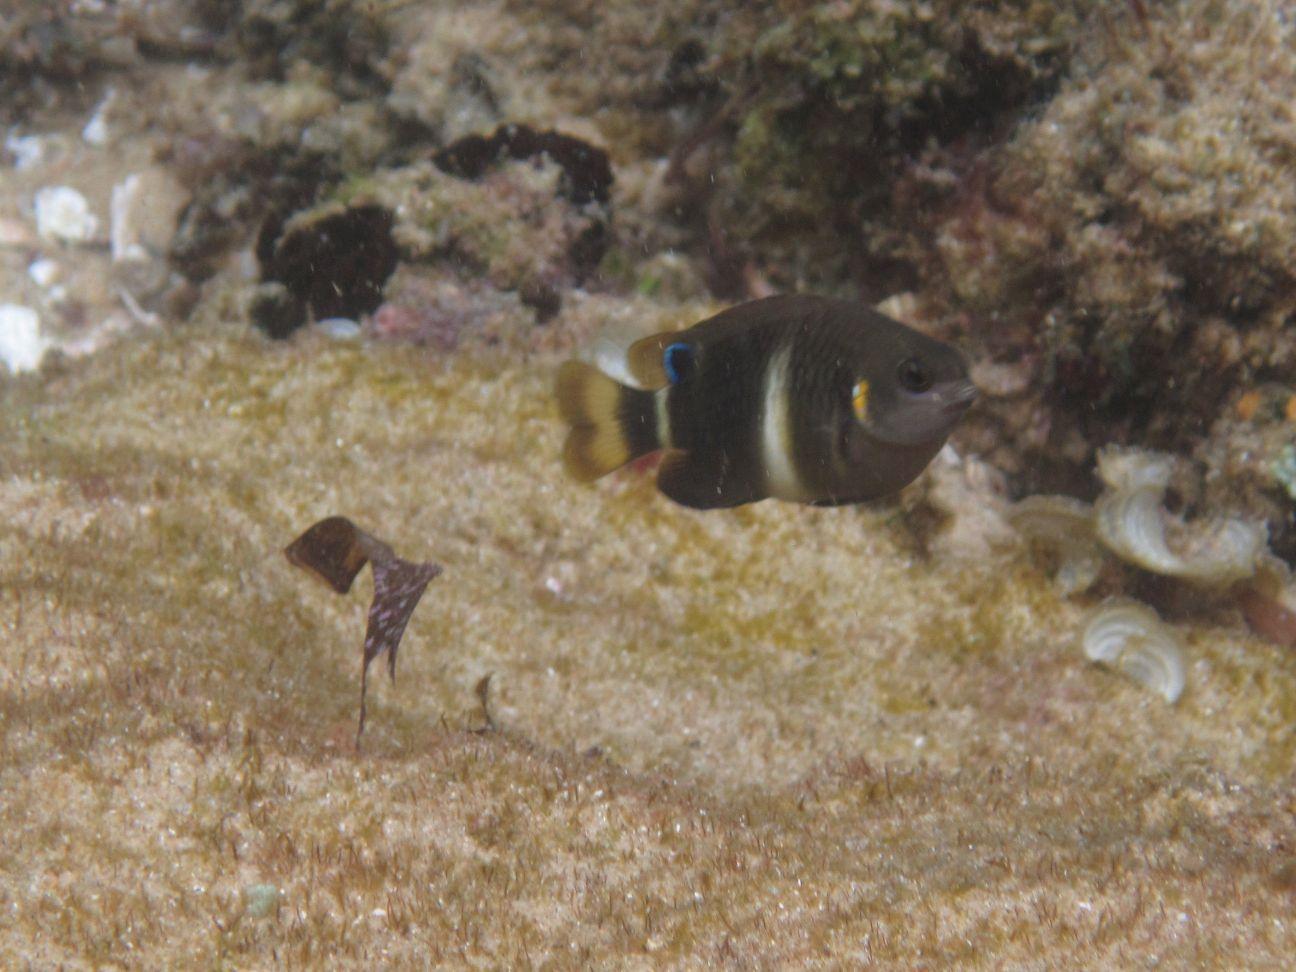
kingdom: Animalia
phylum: Chordata
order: Perciformes
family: Pomacentridae
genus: Chrysiptera
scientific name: Chrysiptera brownriggii
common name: Surge demoiselle
